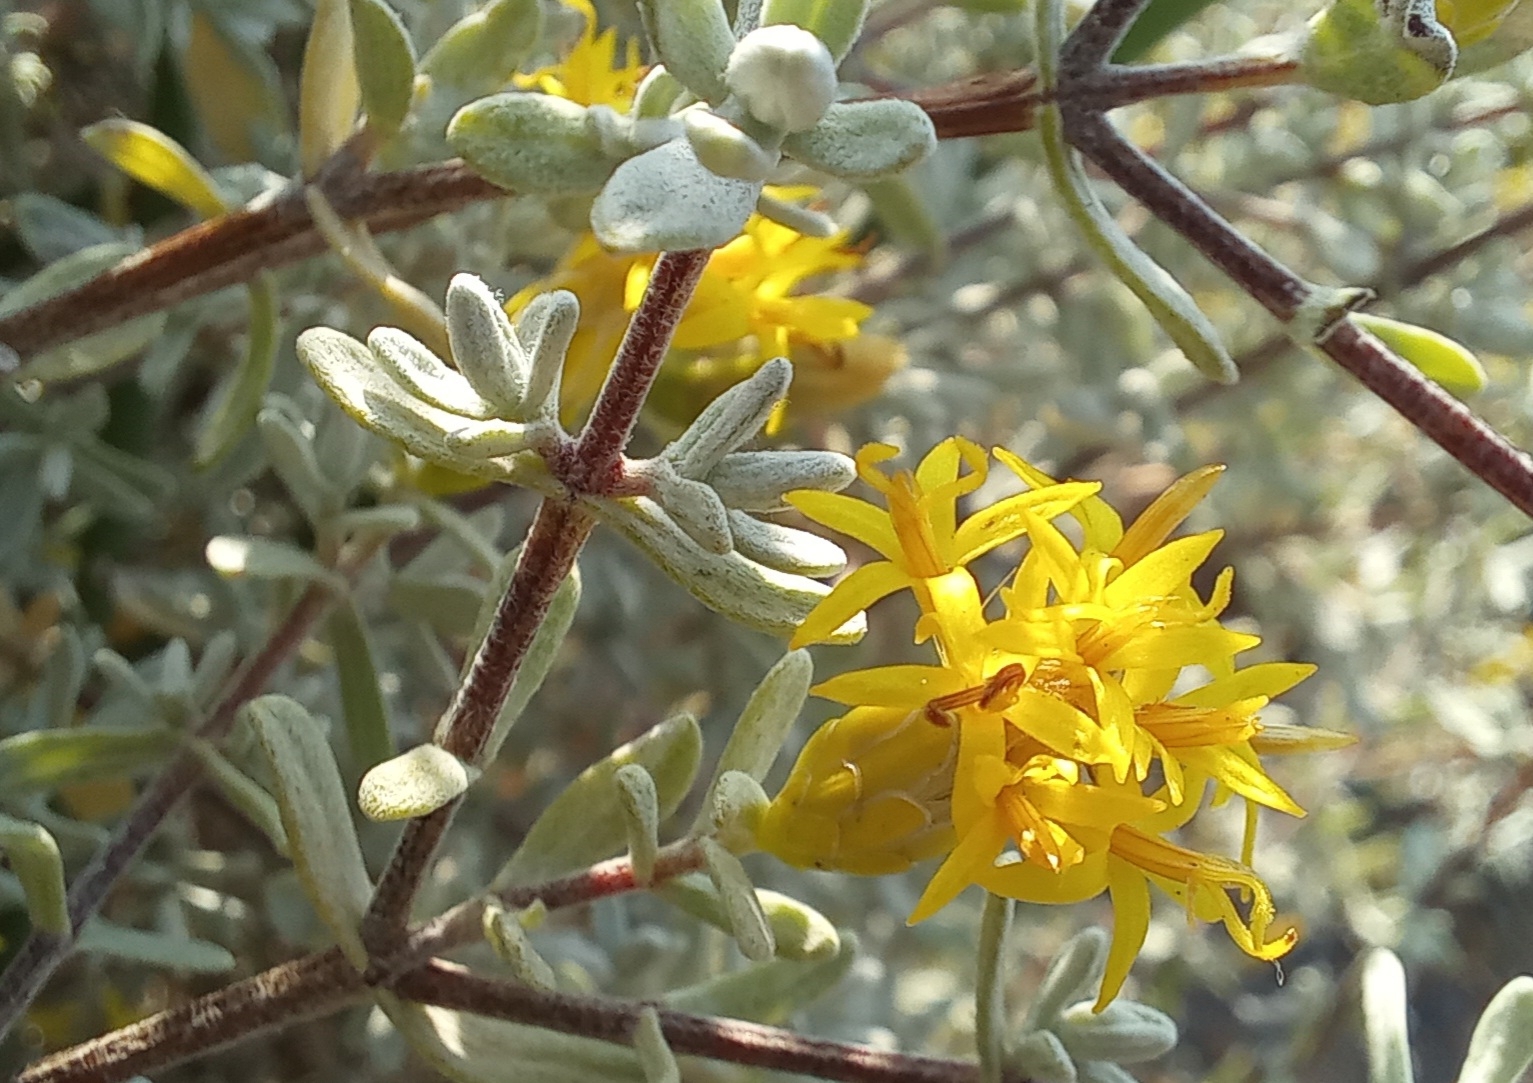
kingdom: Plantae
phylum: Tracheophyta
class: Magnoliopsida
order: Asterales
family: Asteraceae
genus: Pteronia
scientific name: Pteronia incana
